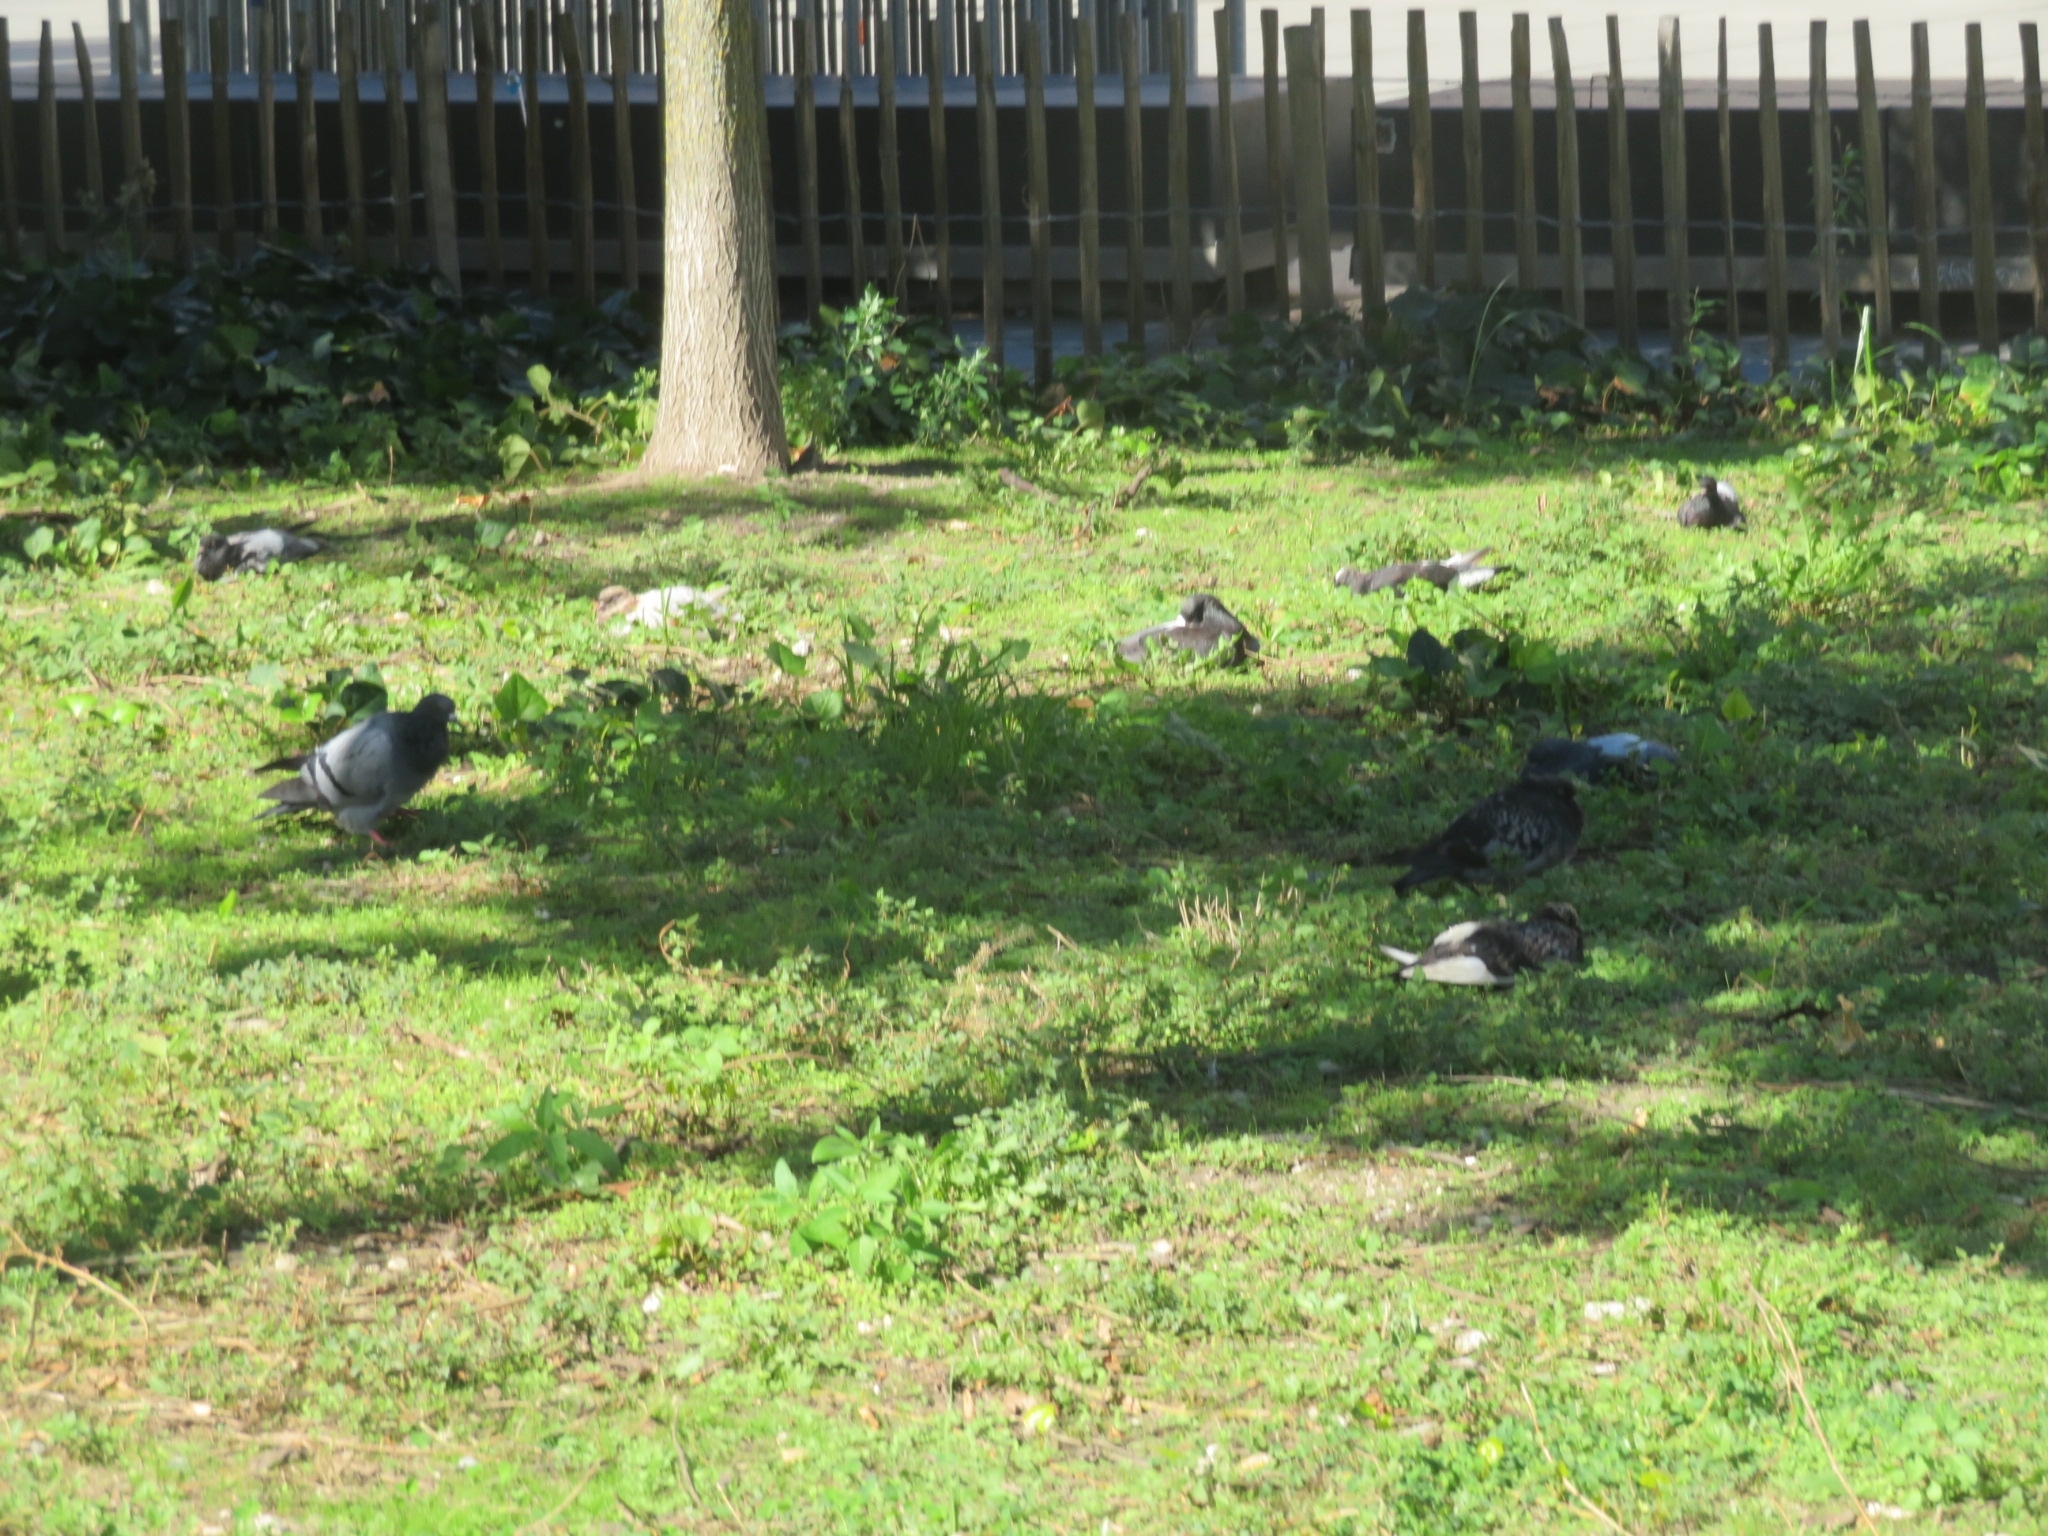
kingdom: Animalia
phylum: Chordata
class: Aves
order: Columbiformes
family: Columbidae
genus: Columba
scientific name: Columba livia
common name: Rock pigeon
